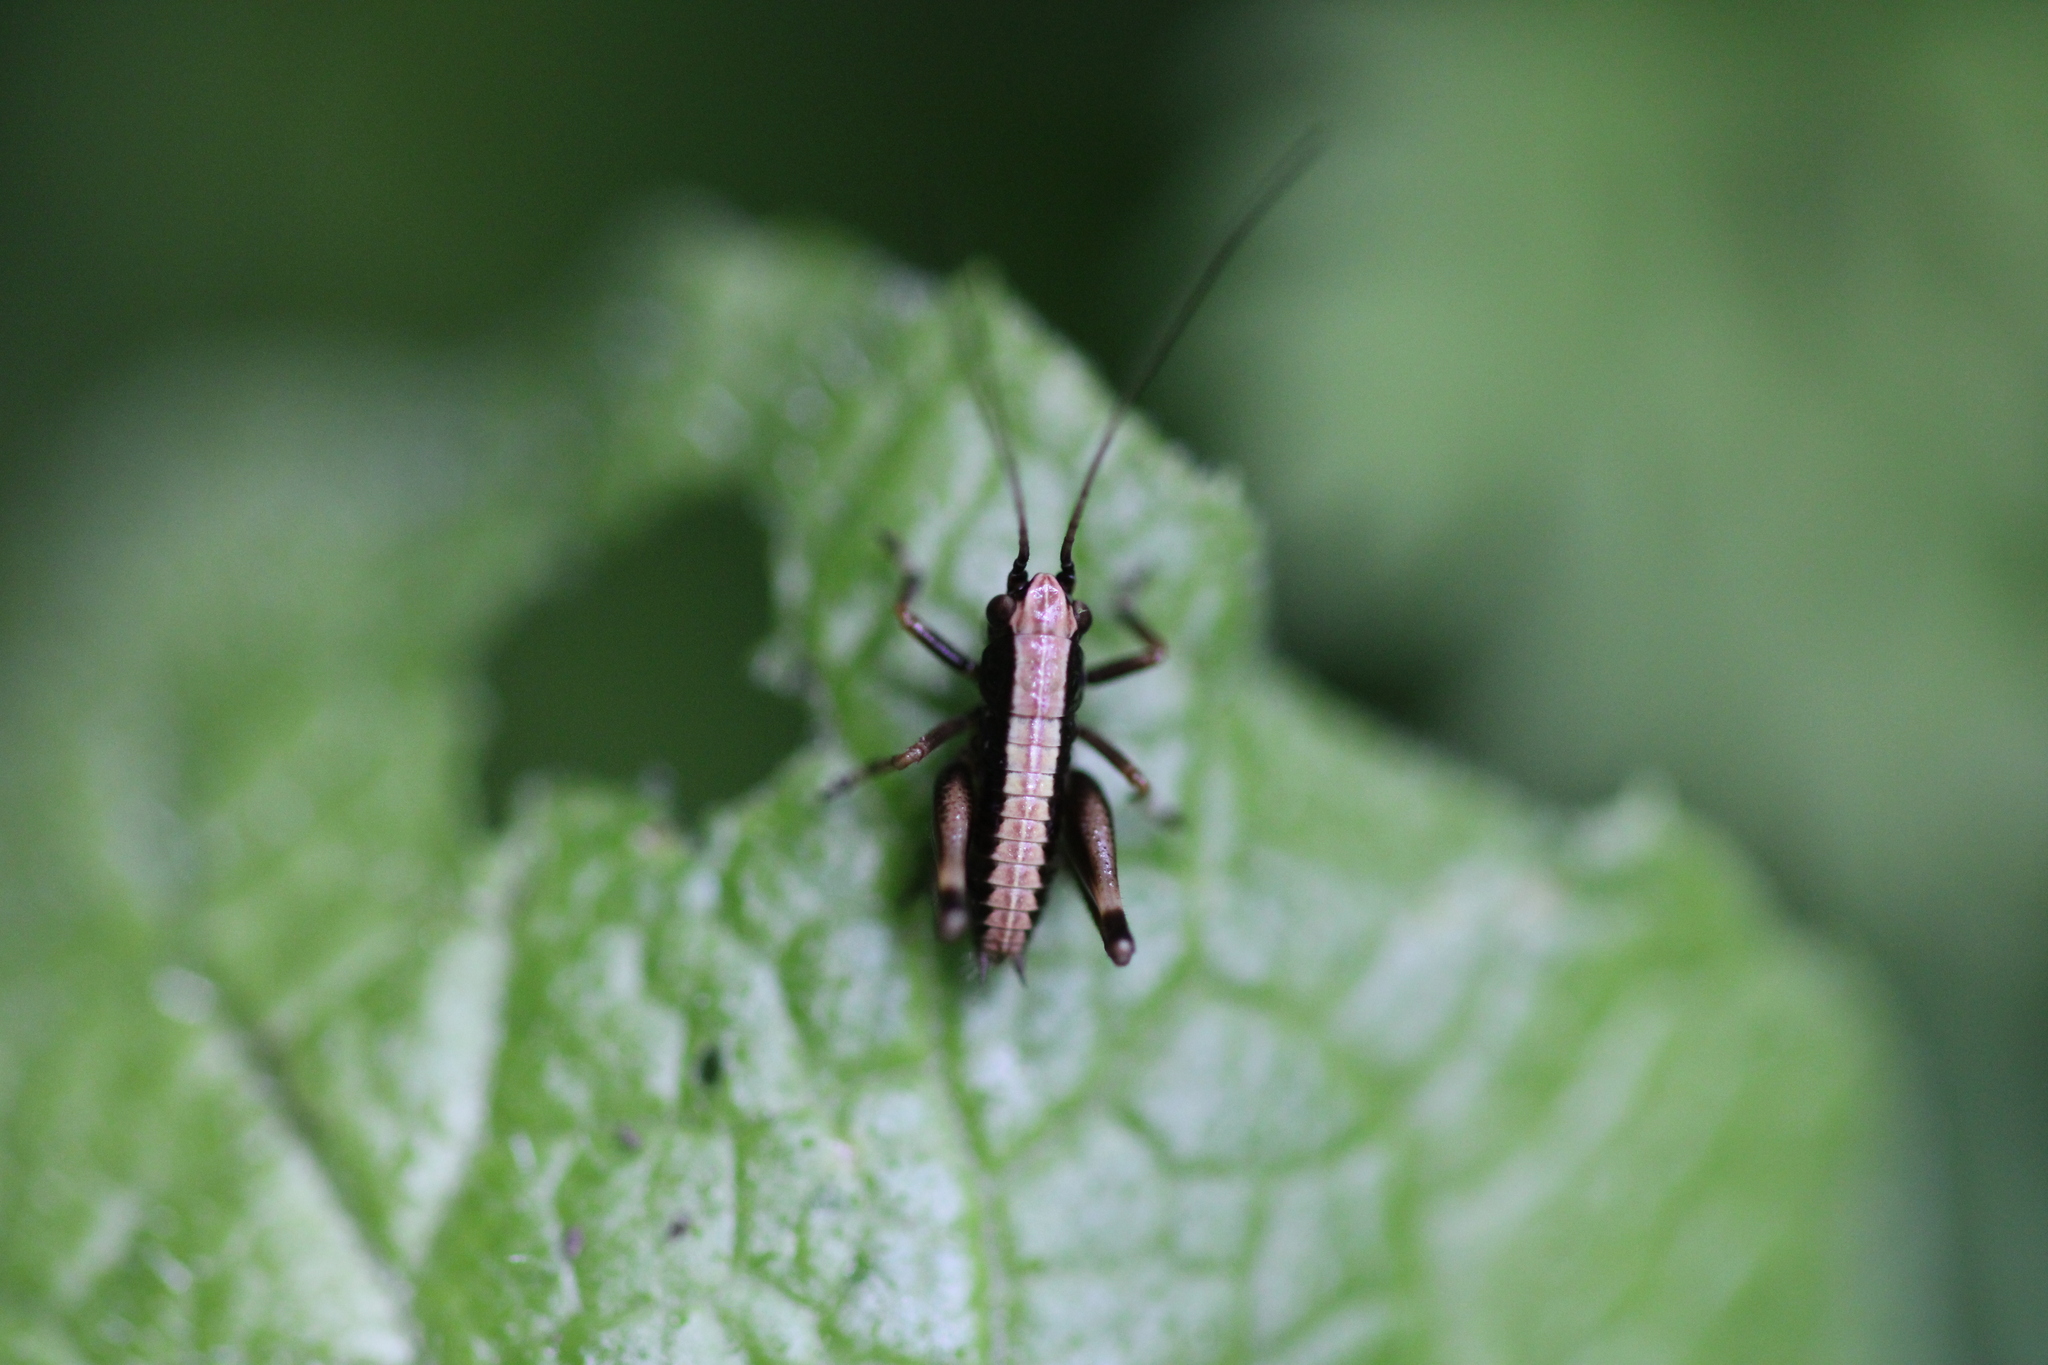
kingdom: Animalia
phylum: Arthropoda
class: Insecta
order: Orthoptera
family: Tettigoniidae
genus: Pholidoptera
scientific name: Pholidoptera griseoaptera
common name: Dark bush-cricket
